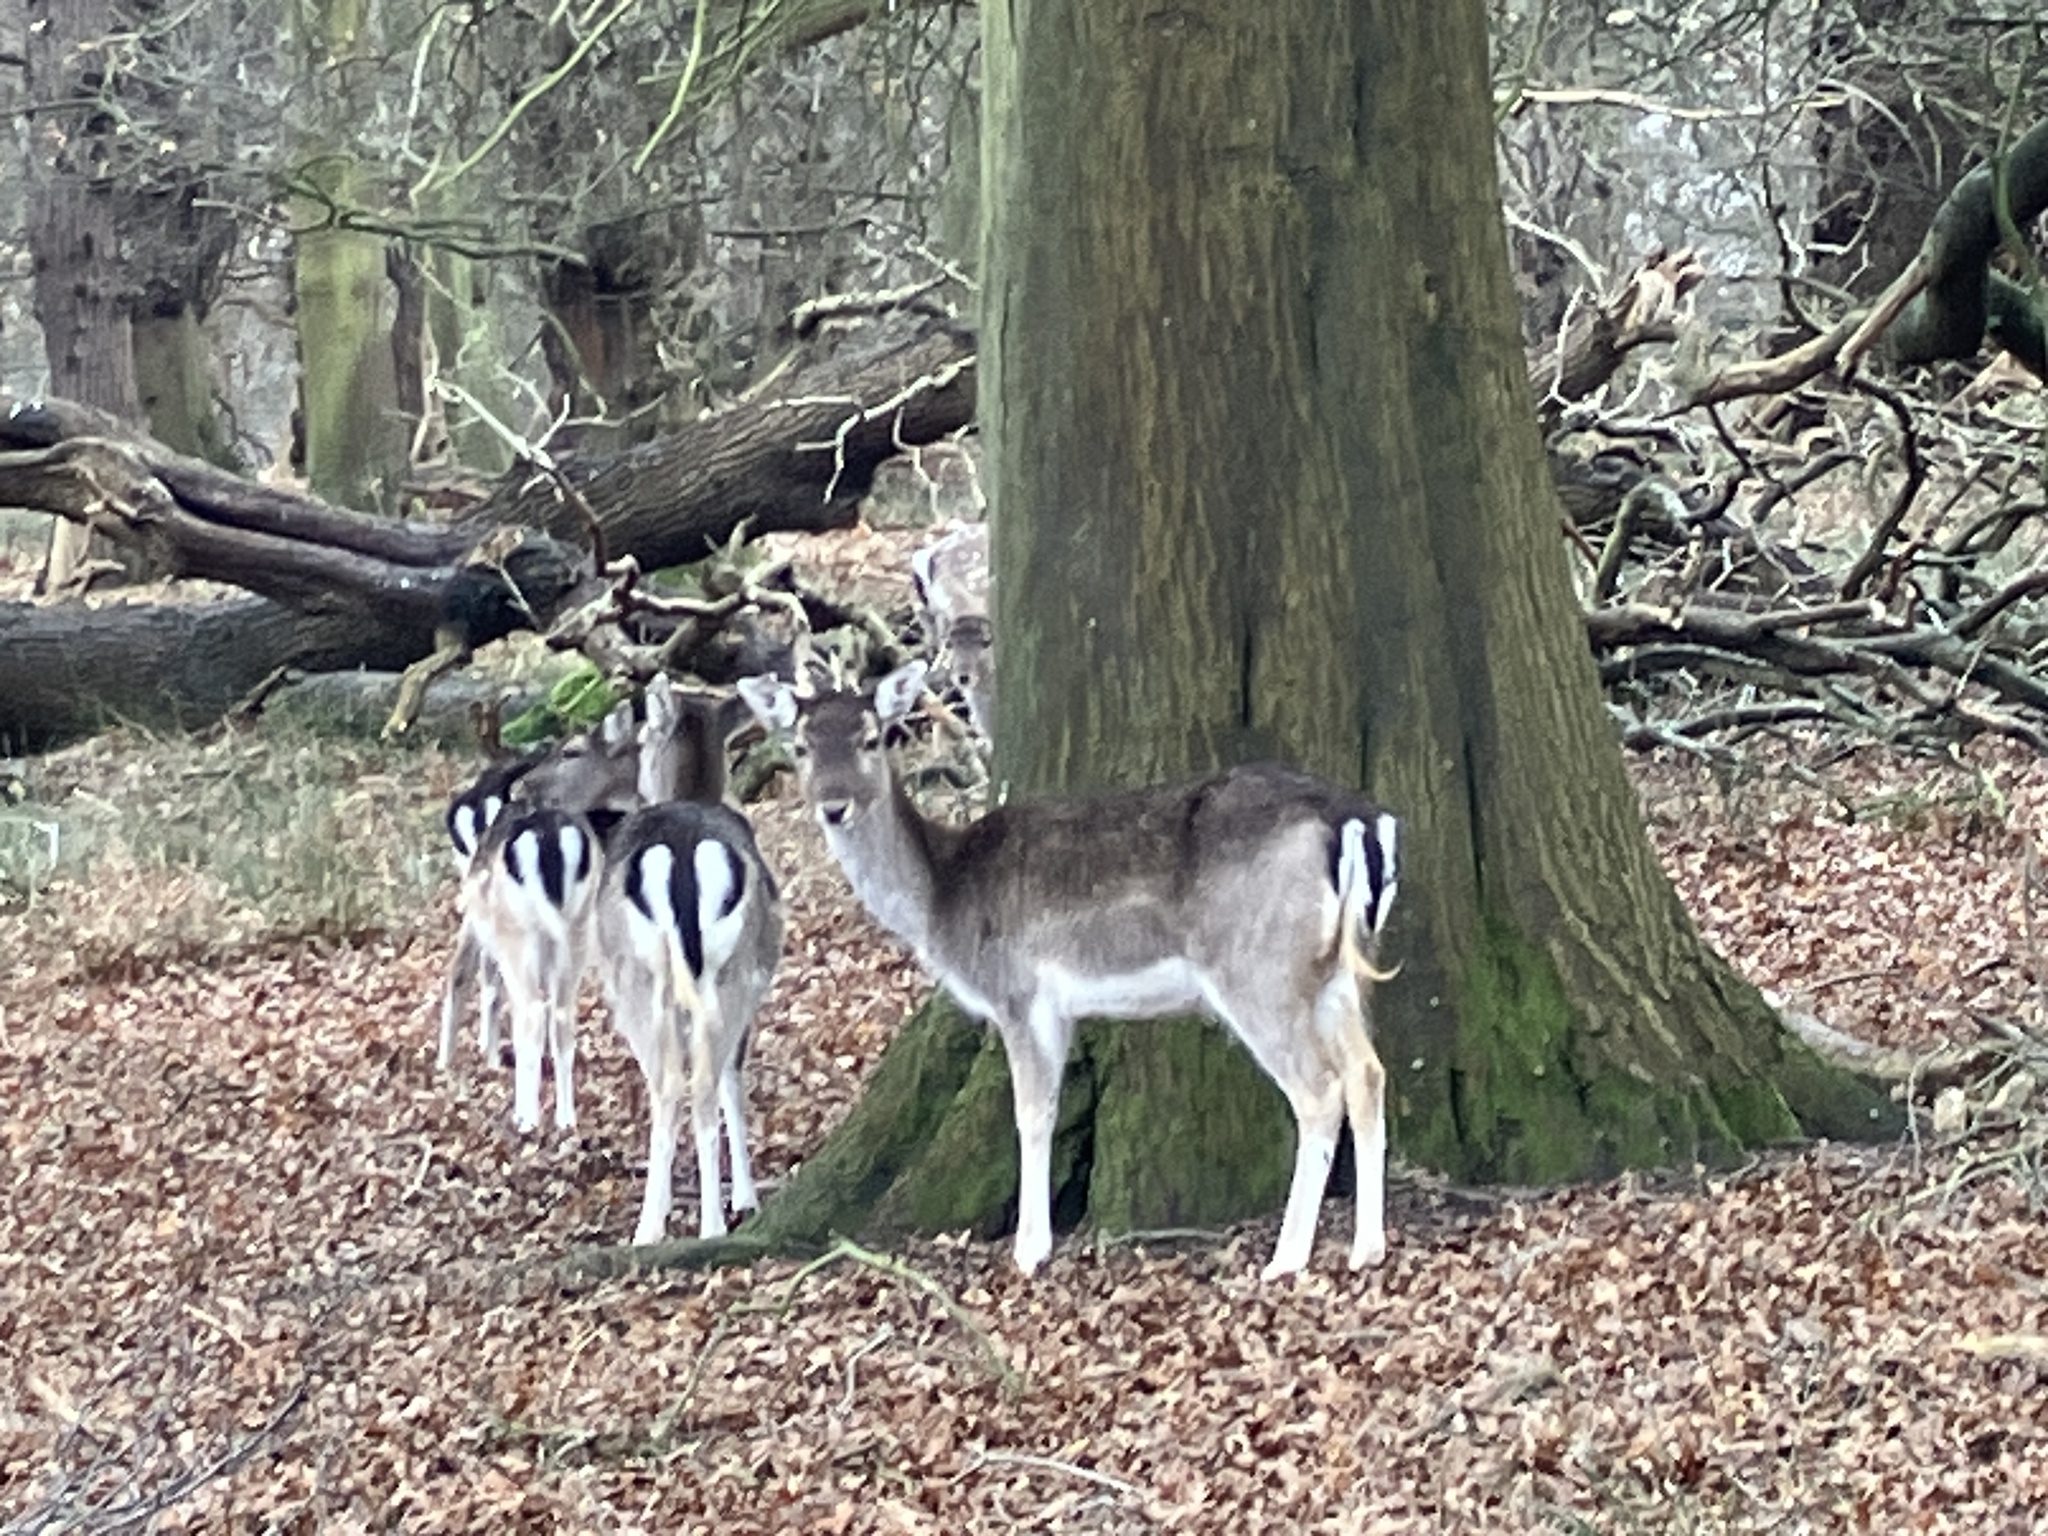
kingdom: Animalia
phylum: Chordata
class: Mammalia
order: Artiodactyla
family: Cervidae
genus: Dama
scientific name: Dama dama
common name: Fallow deer
